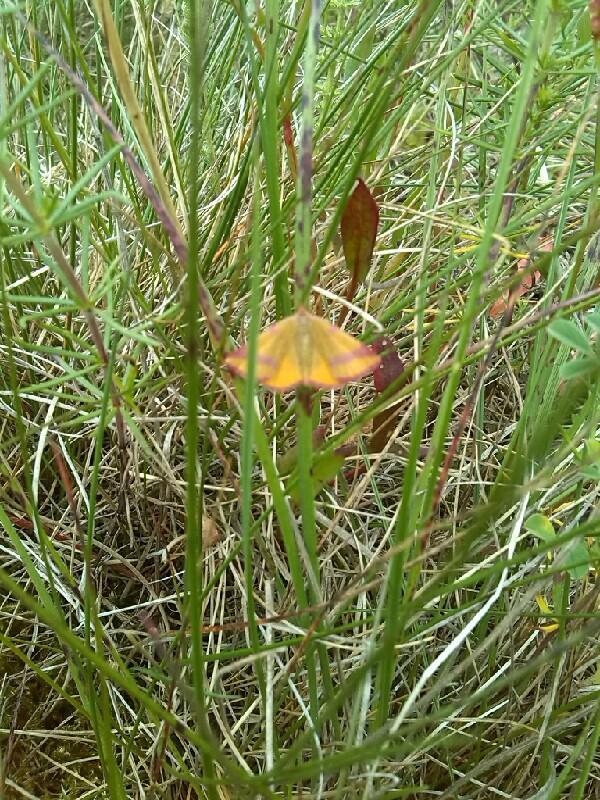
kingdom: Animalia
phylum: Arthropoda
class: Insecta
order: Lepidoptera
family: Geometridae
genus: Lythria
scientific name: Lythria cruentaria
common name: Purple-barred yellow
